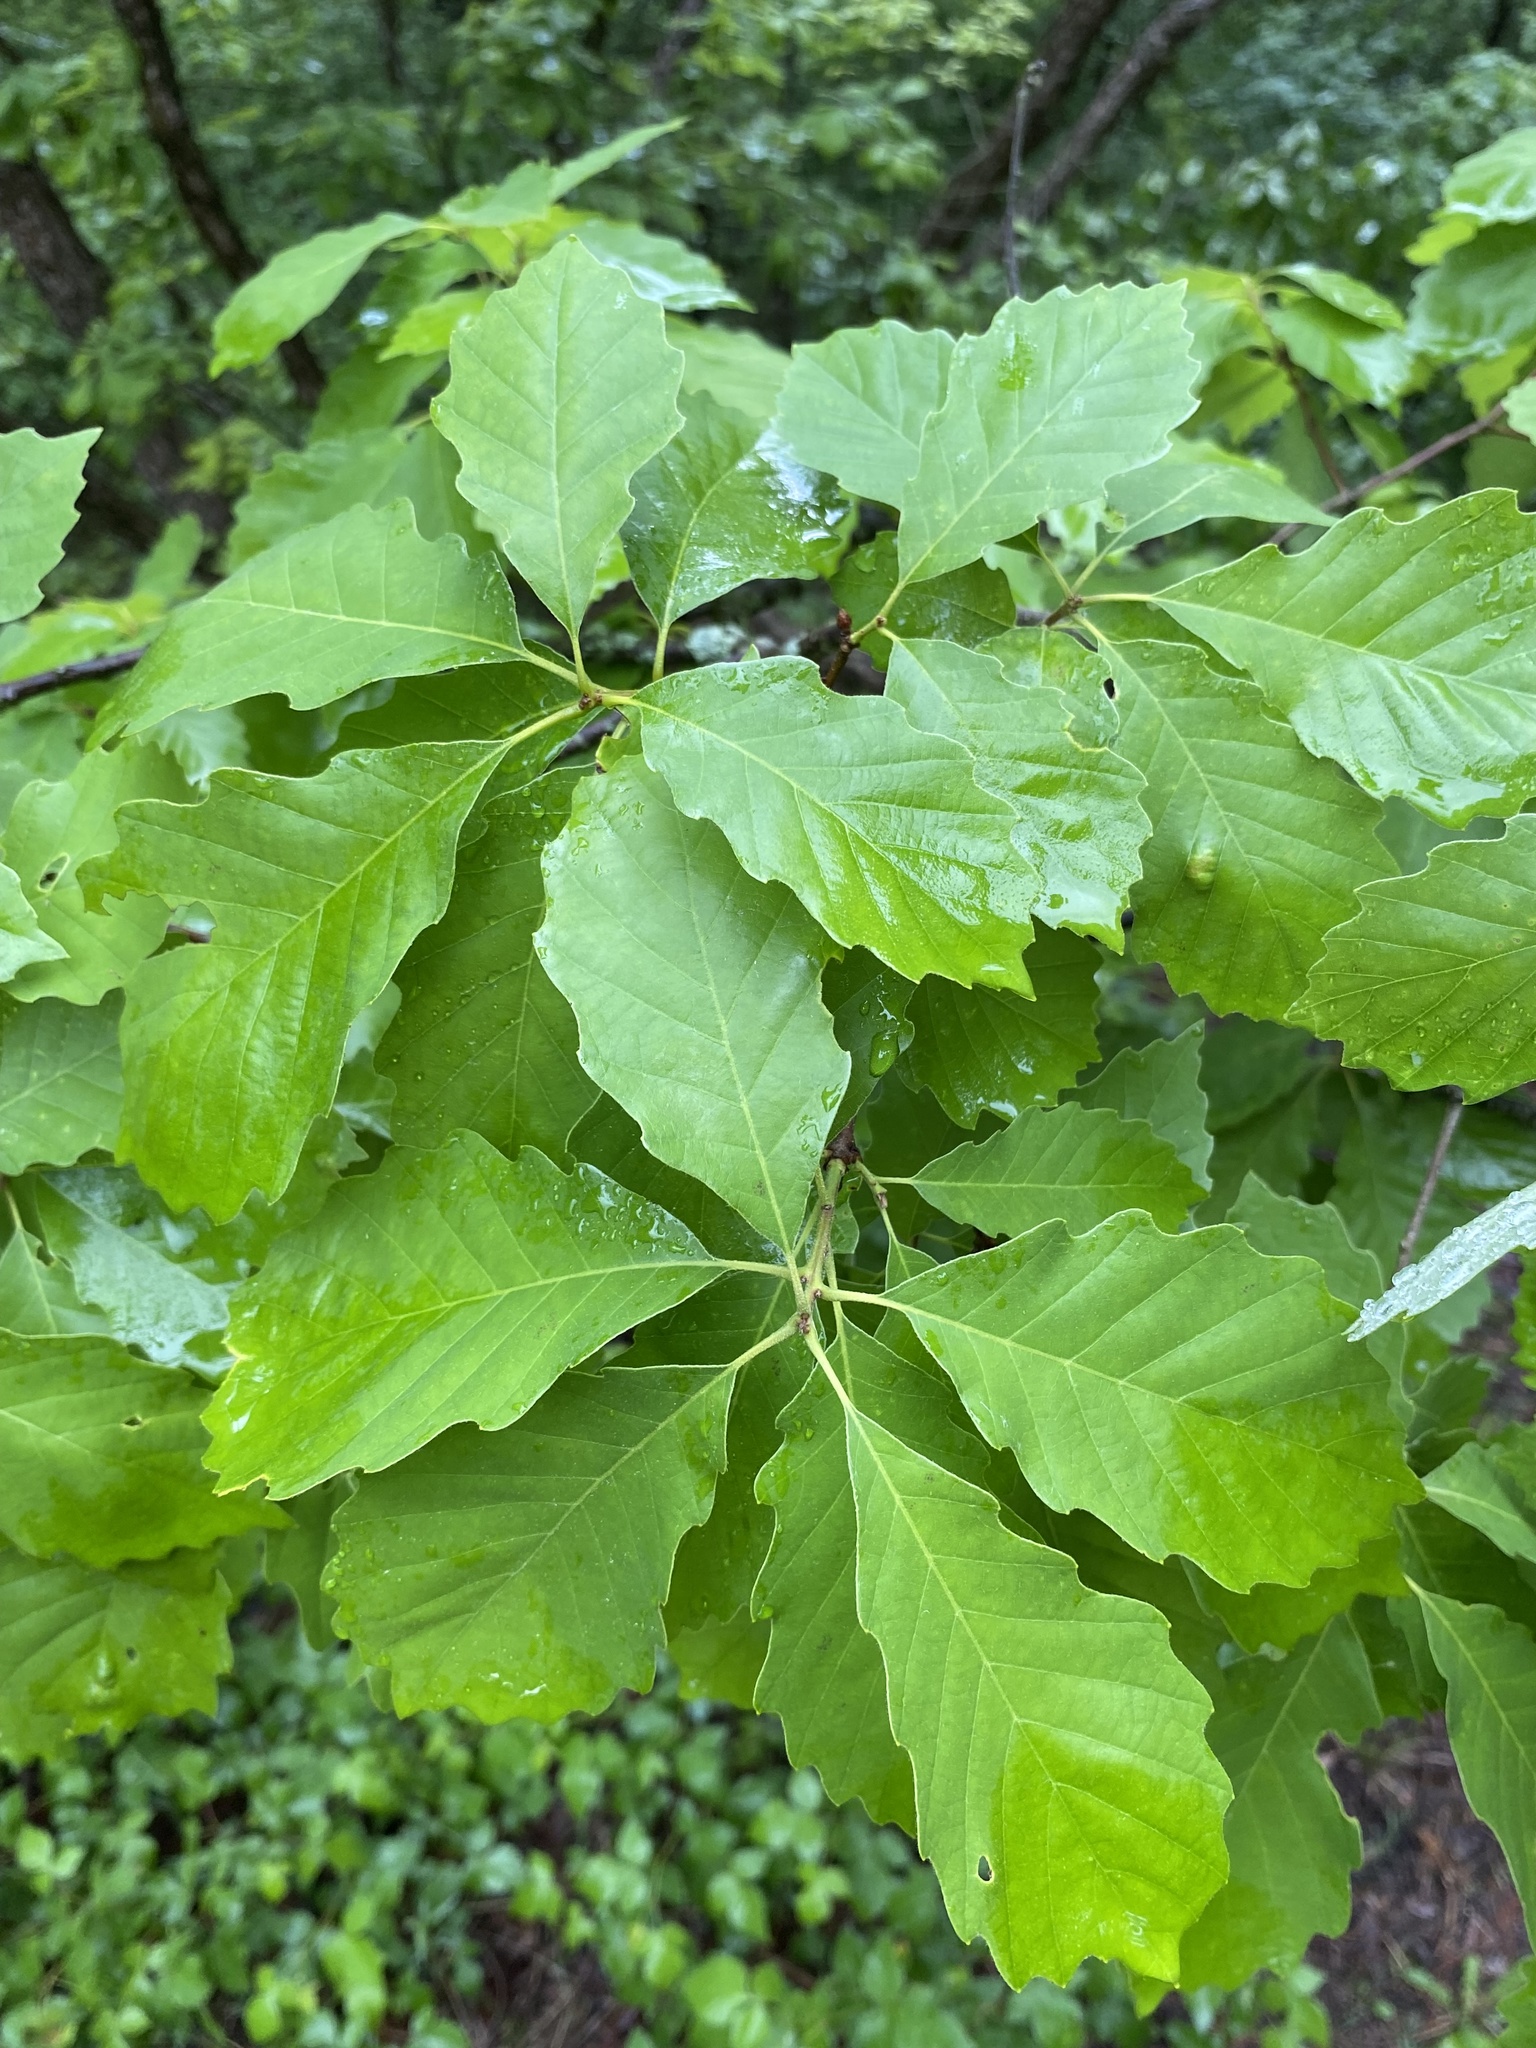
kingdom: Plantae
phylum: Tracheophyta
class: Magnoliopsida
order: Fagales
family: Fagaceae
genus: Quercus
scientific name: Quercus prinoides
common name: Dwarf chinkapin oak
